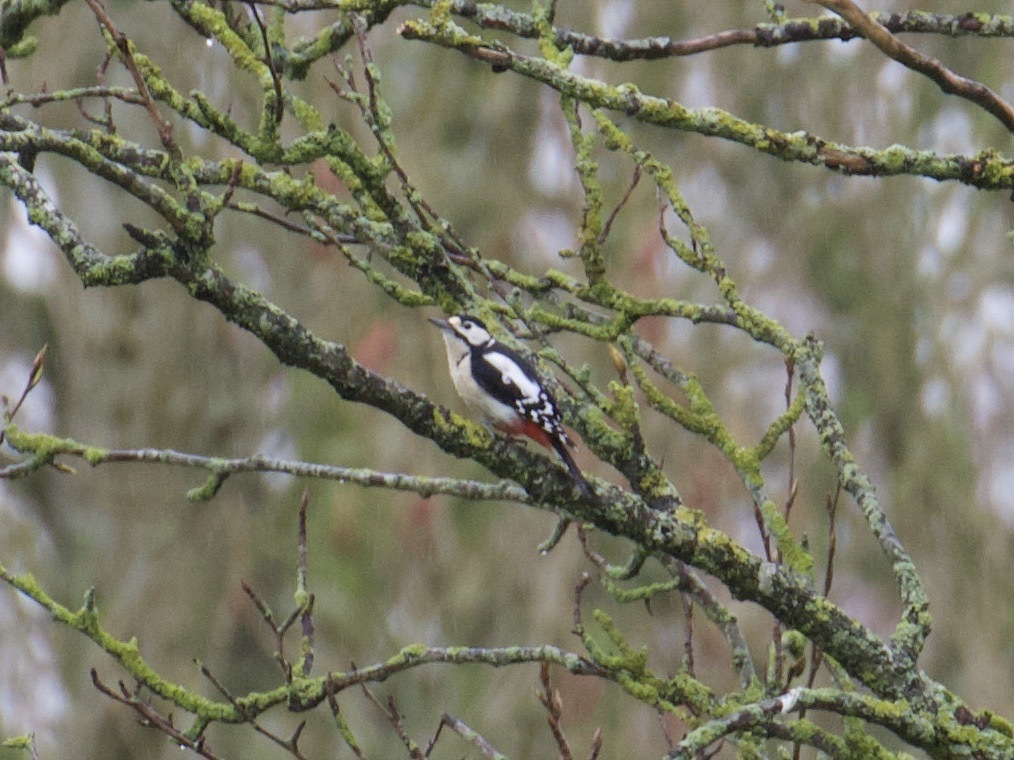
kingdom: Animalia
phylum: Chordata
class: Aves
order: Piciformes
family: Picidae
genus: Dendrocopos
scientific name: Dendrocopos major
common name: Great spotted woodpecker
